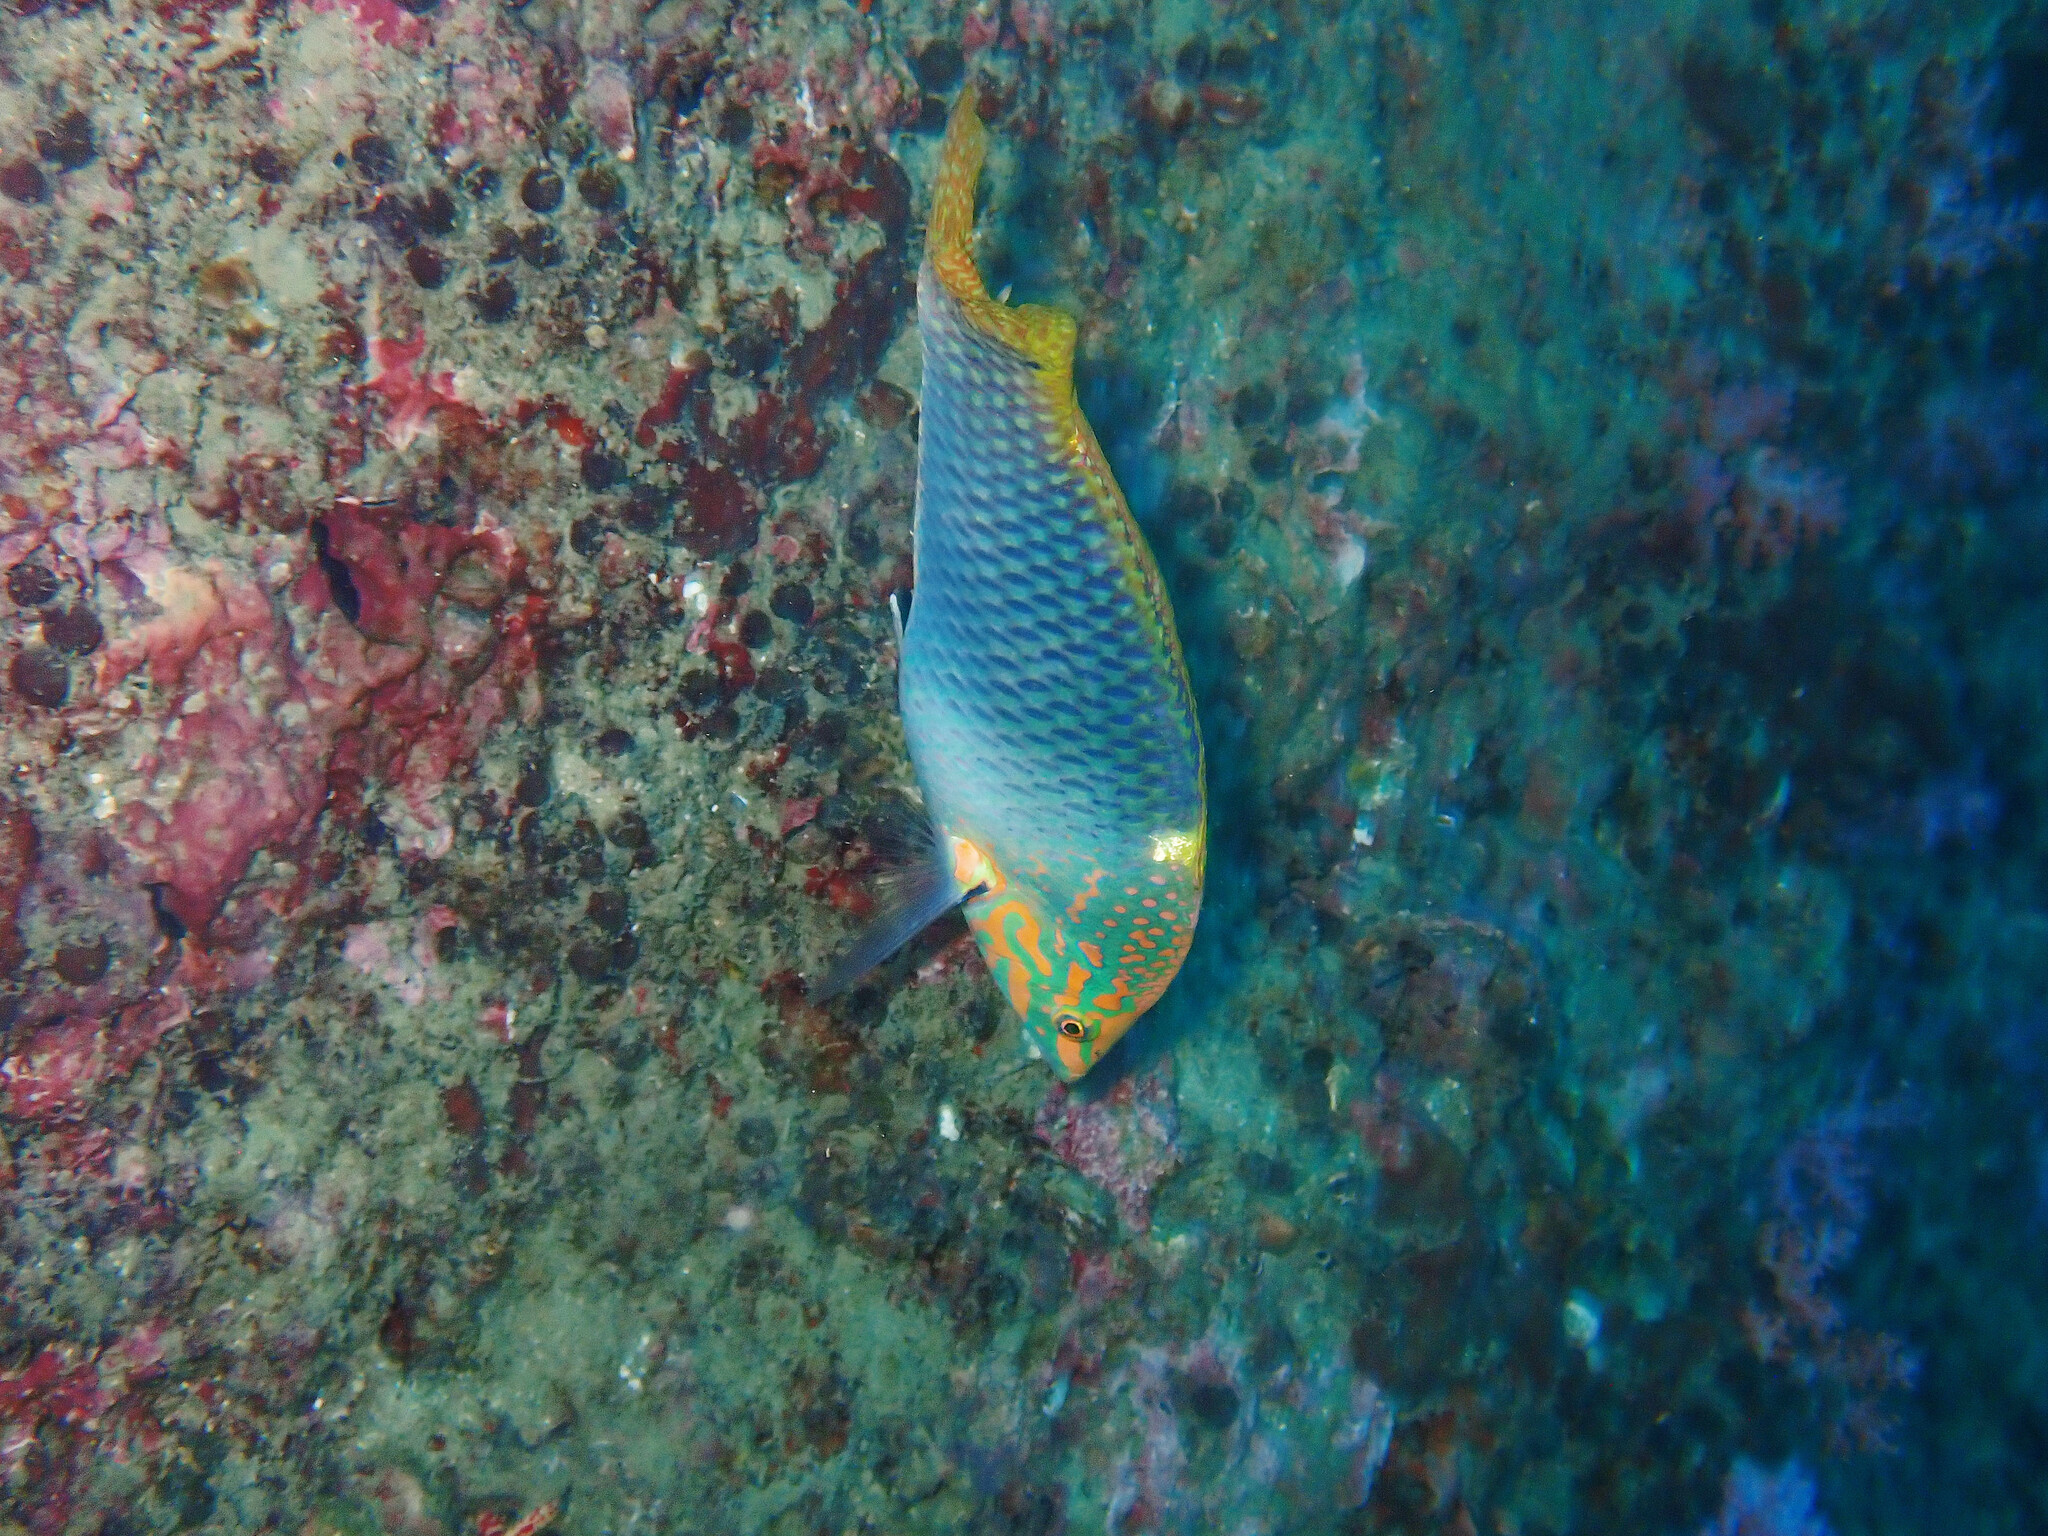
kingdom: Animalia
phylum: Chordata
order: Perciformes
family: Labridae
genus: Halichoeres
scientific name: Halichoeres hortulanus
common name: Checkerboard wrasse
